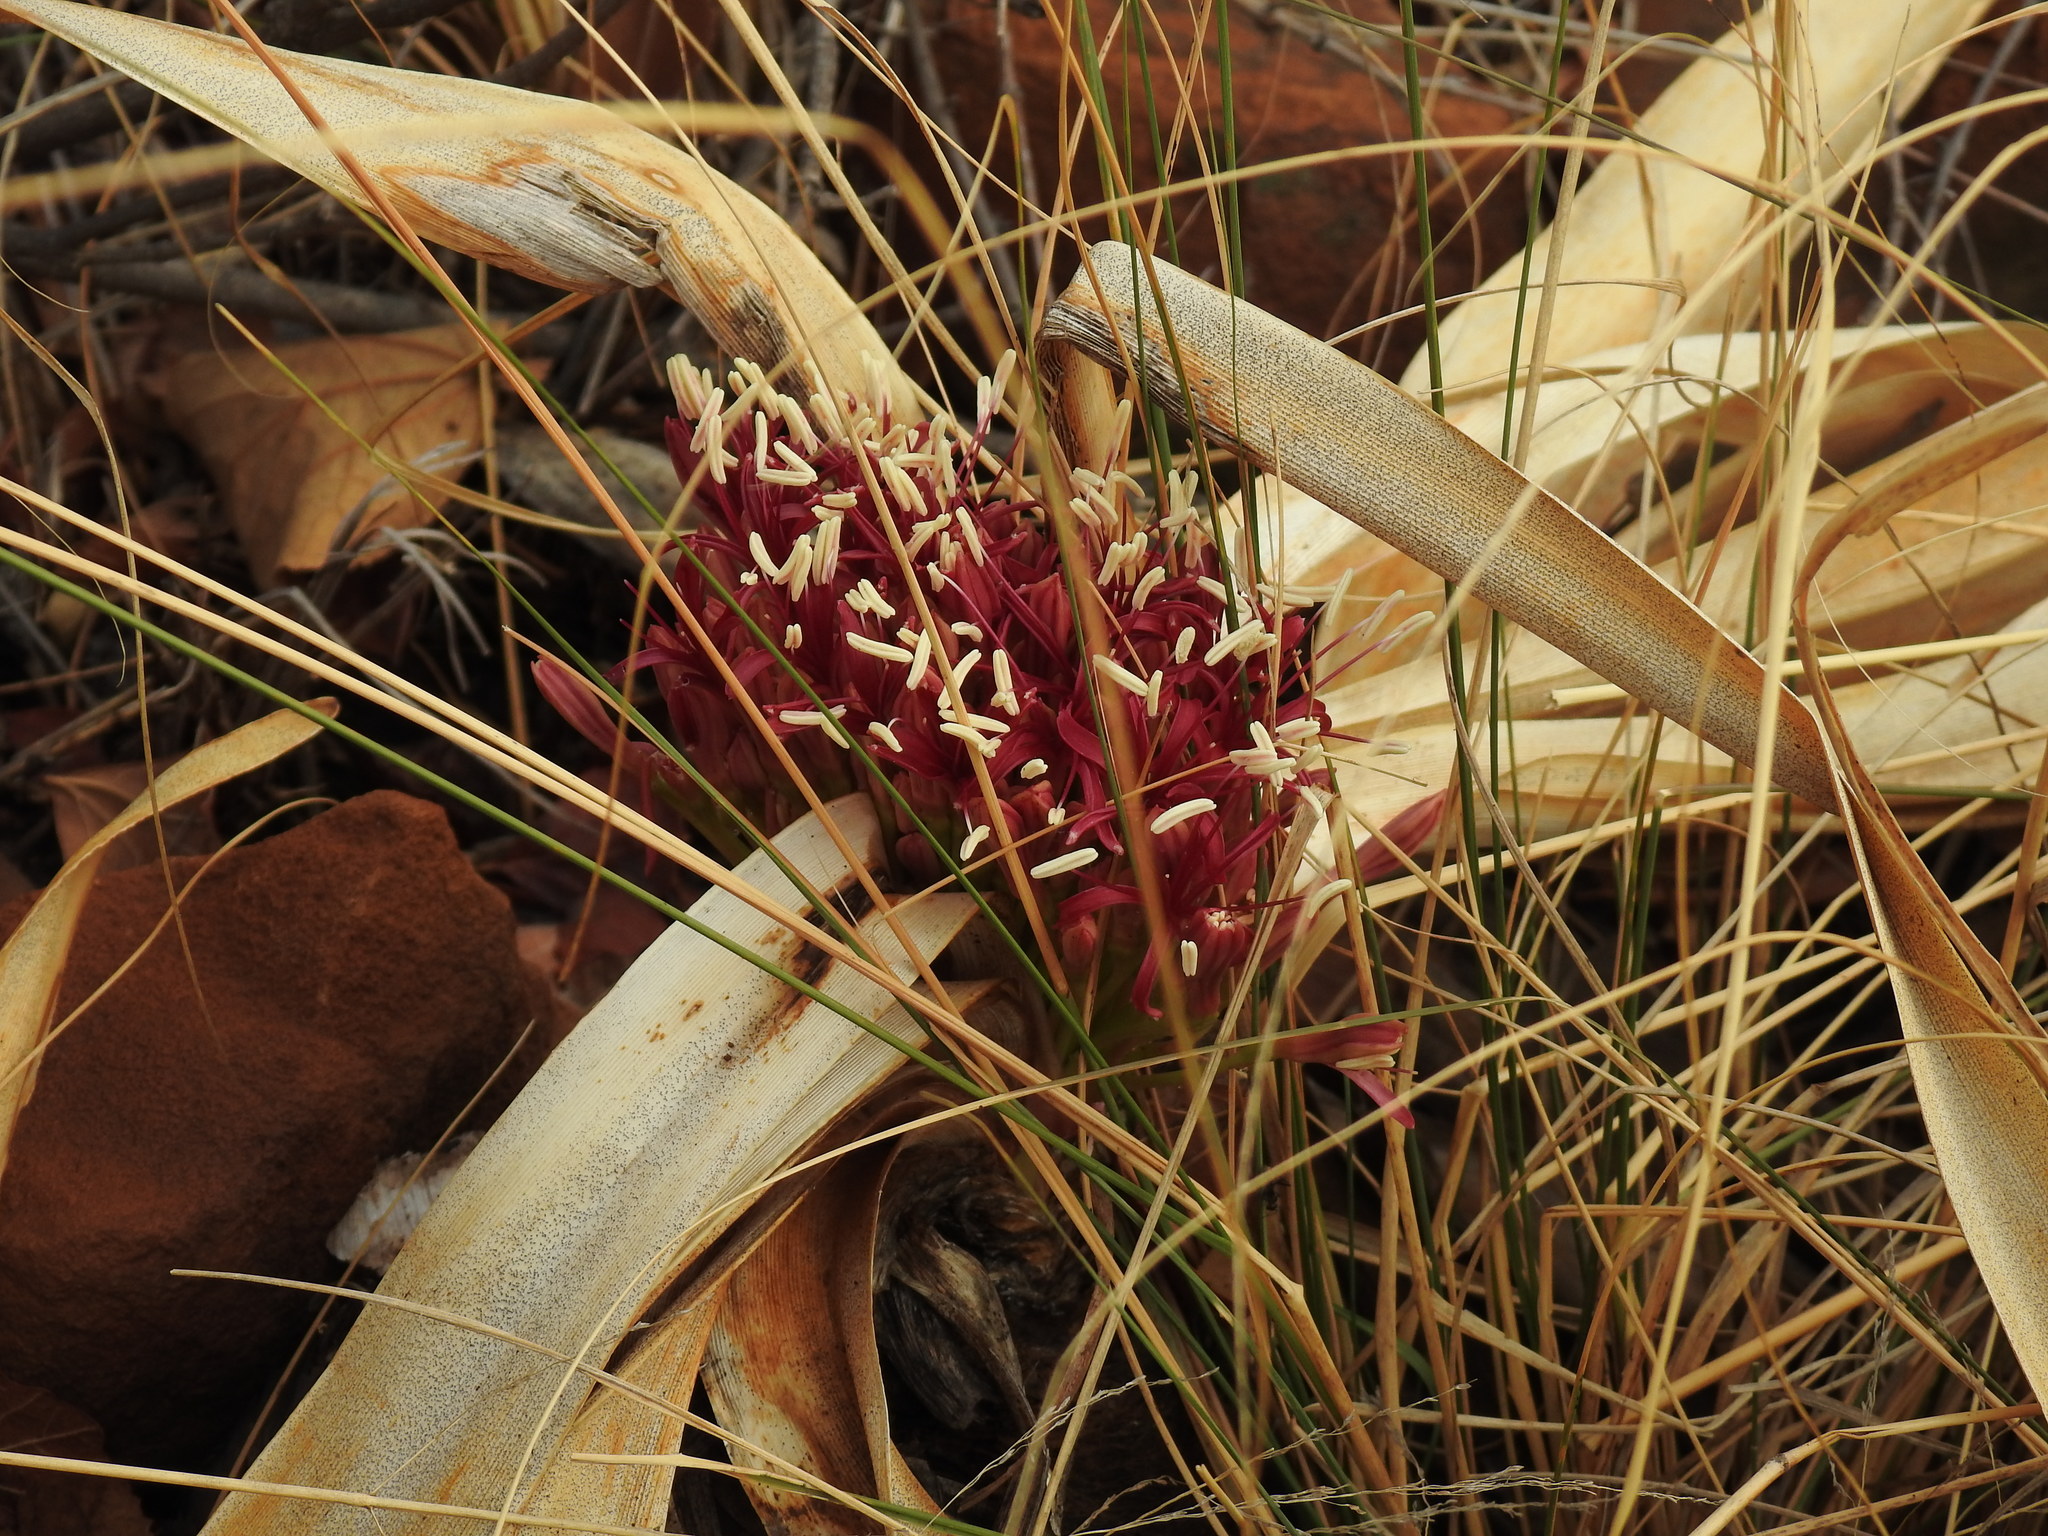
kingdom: Plantae
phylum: Tracheophyta
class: Liliopsida
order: Asparagales
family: Amaryllidaceae
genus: Boophone
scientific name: Boophone disticha
